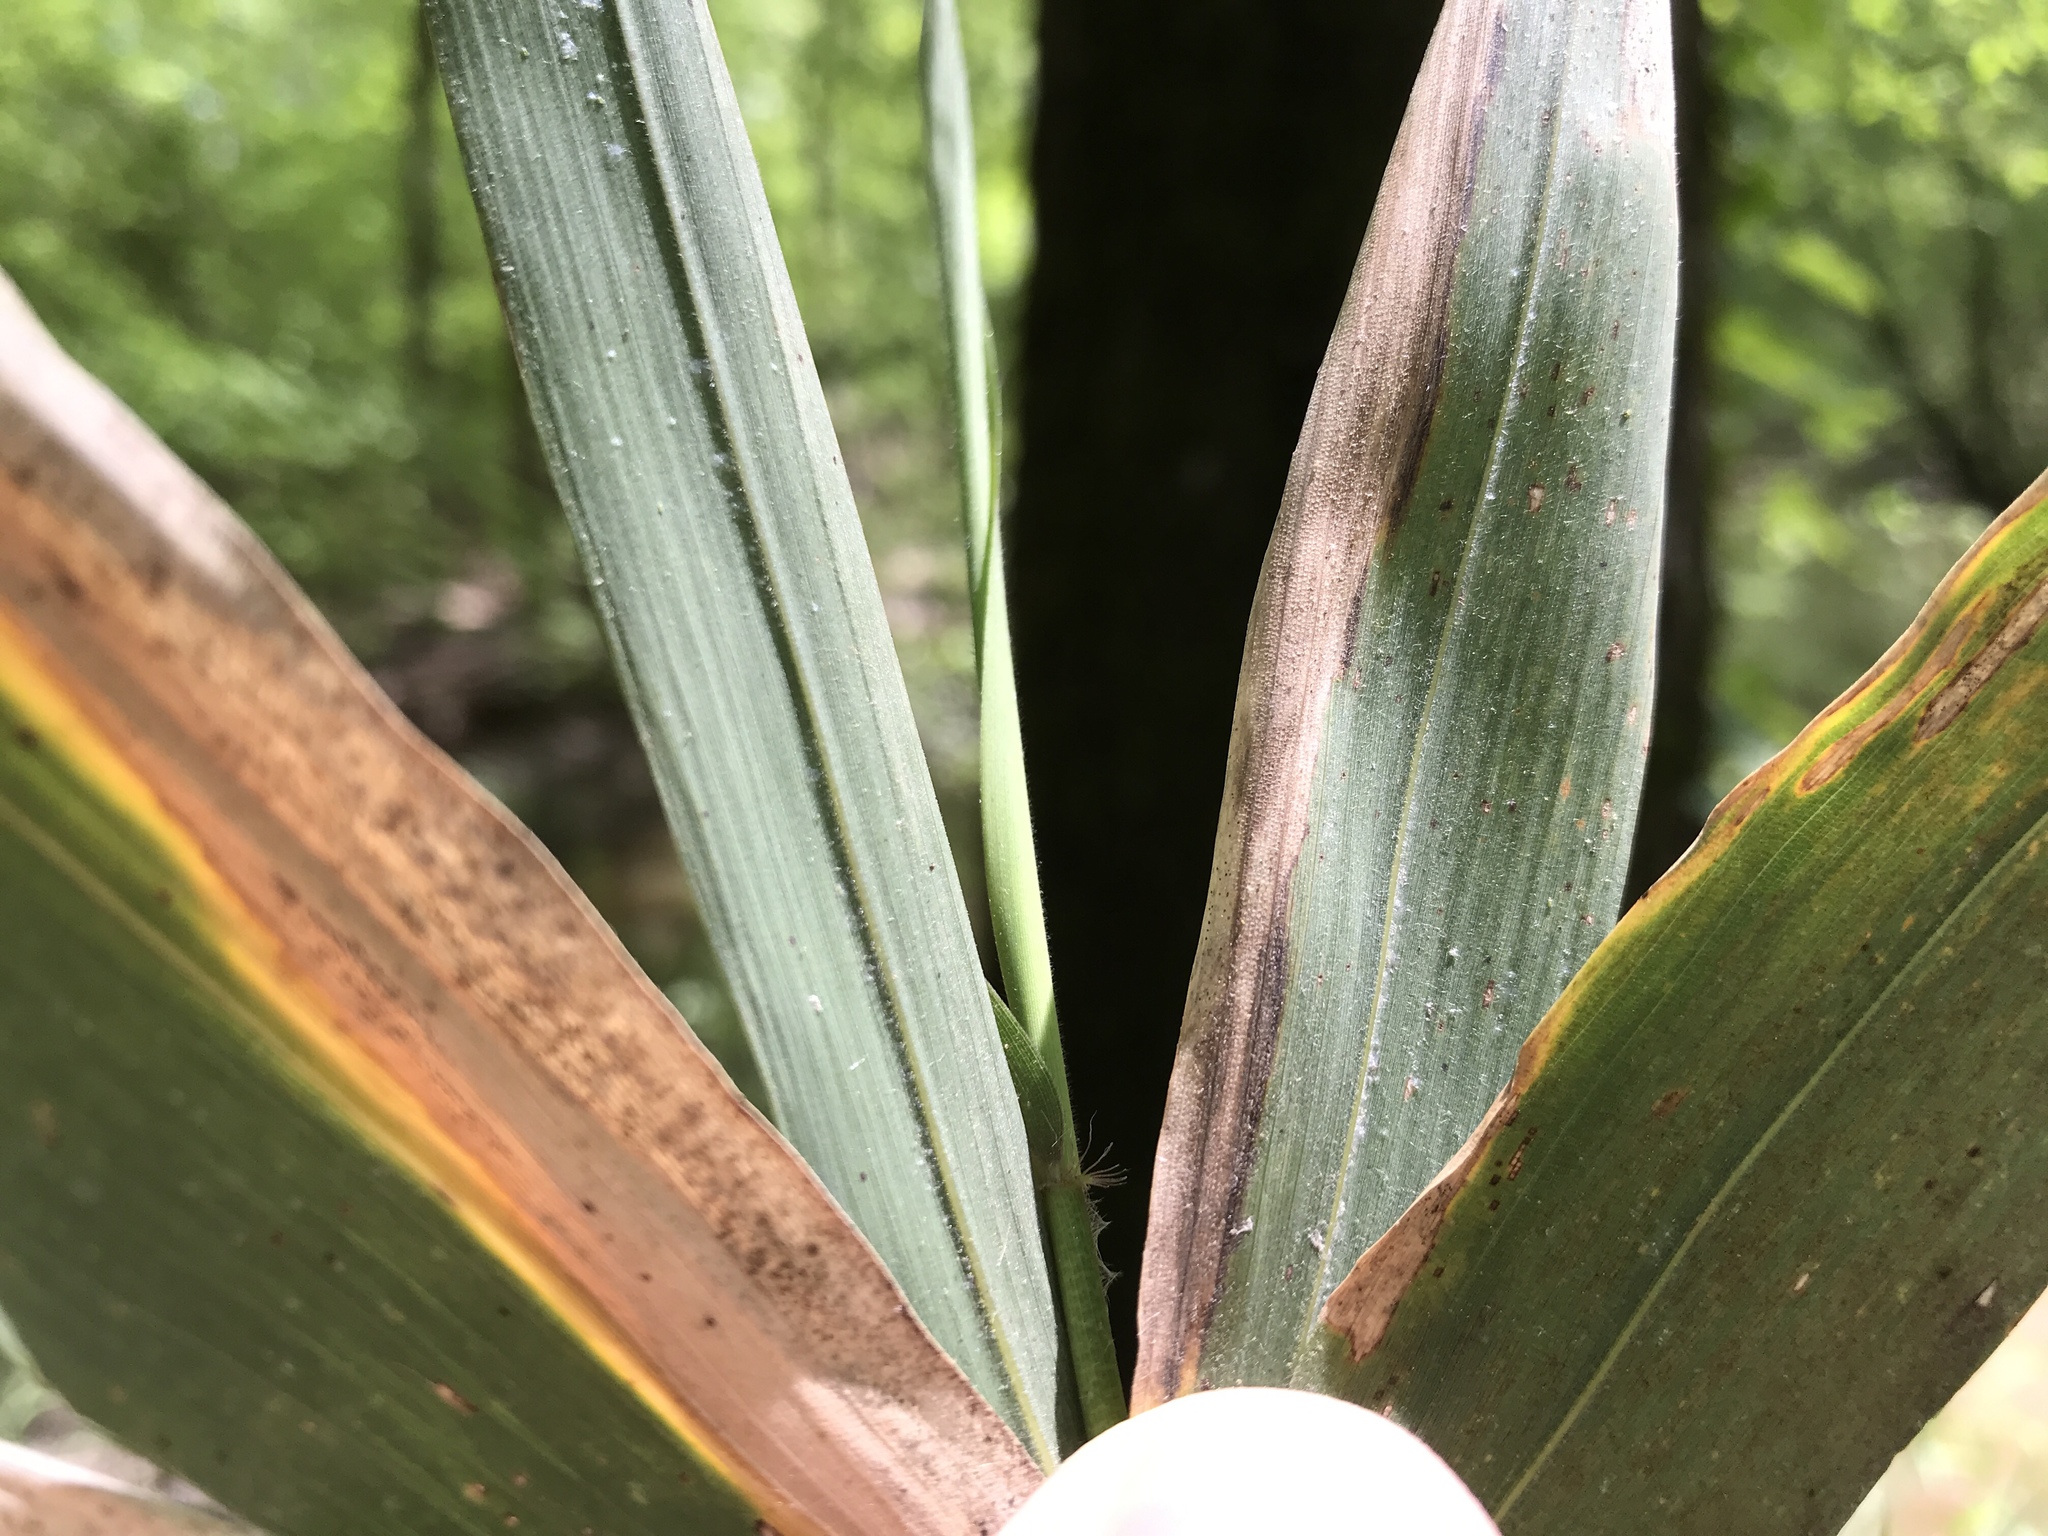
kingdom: Plantae
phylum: Tracheophyta
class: Liliopsida
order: Poales
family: Poaceae
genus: Arundinaria
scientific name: Arundinaria tecta
